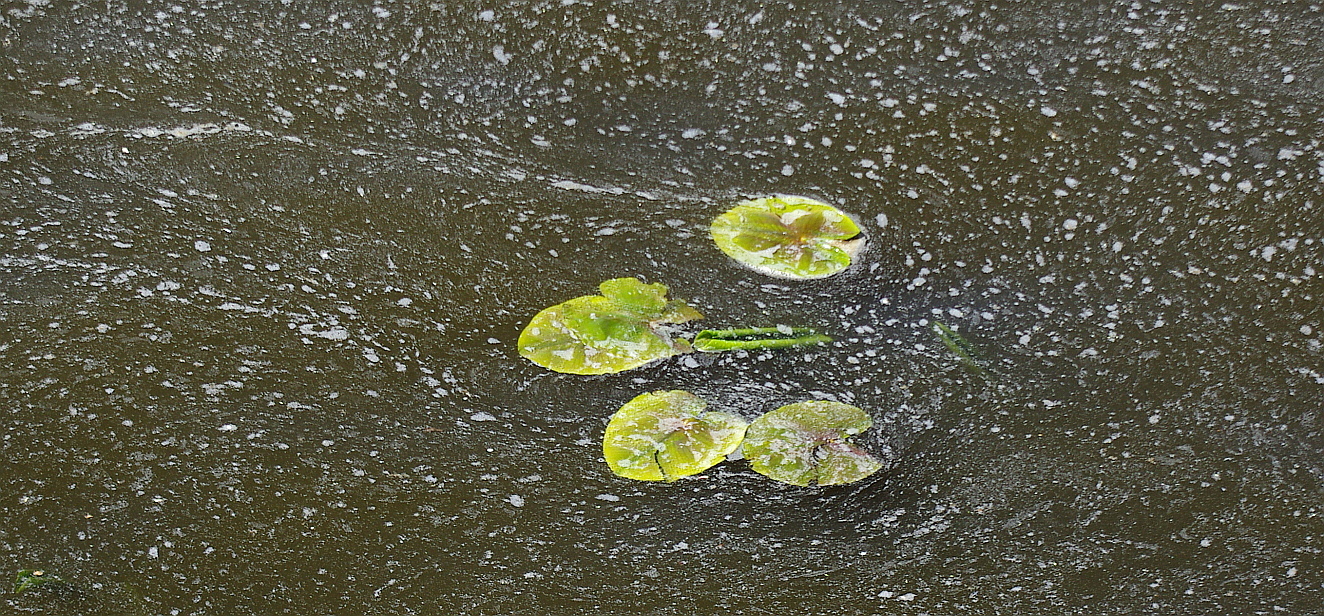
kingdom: Plantae
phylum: Tracheophyta
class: Magnoliopsida
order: Nymphaeales
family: Nymphaeaceae
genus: Nuphar
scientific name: Nuphar lutea
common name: Yellow water-lily
